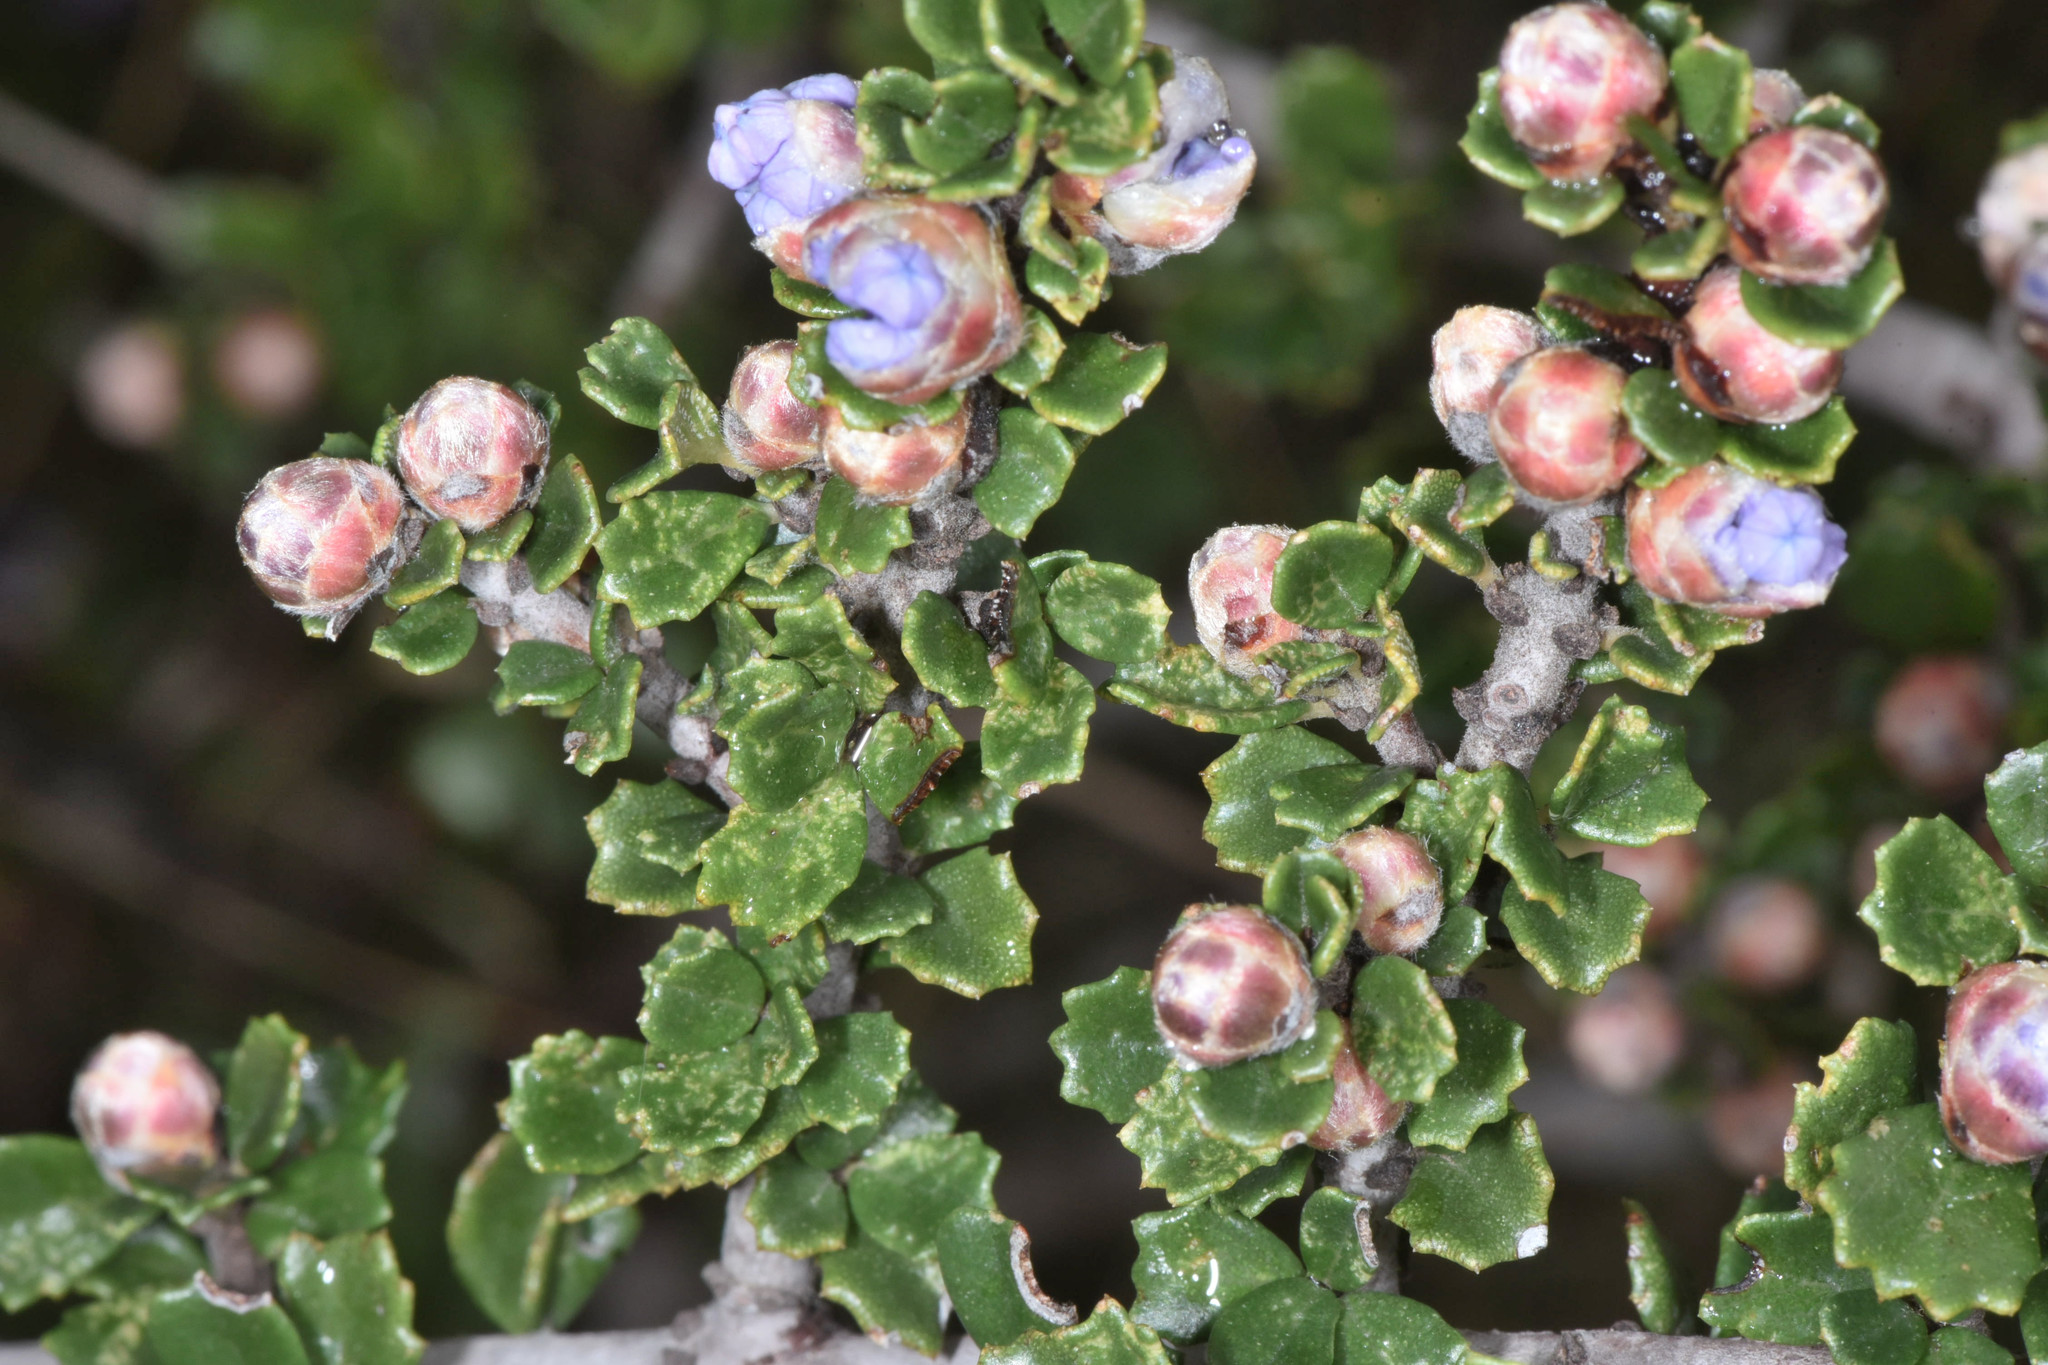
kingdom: Plantae
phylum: Tracheophyta
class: Magnoliopsida
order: Rosales
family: Rhamnaceae
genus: Ceanothus
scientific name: Ceanothus cuneatus
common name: Cuneate ceanothus
